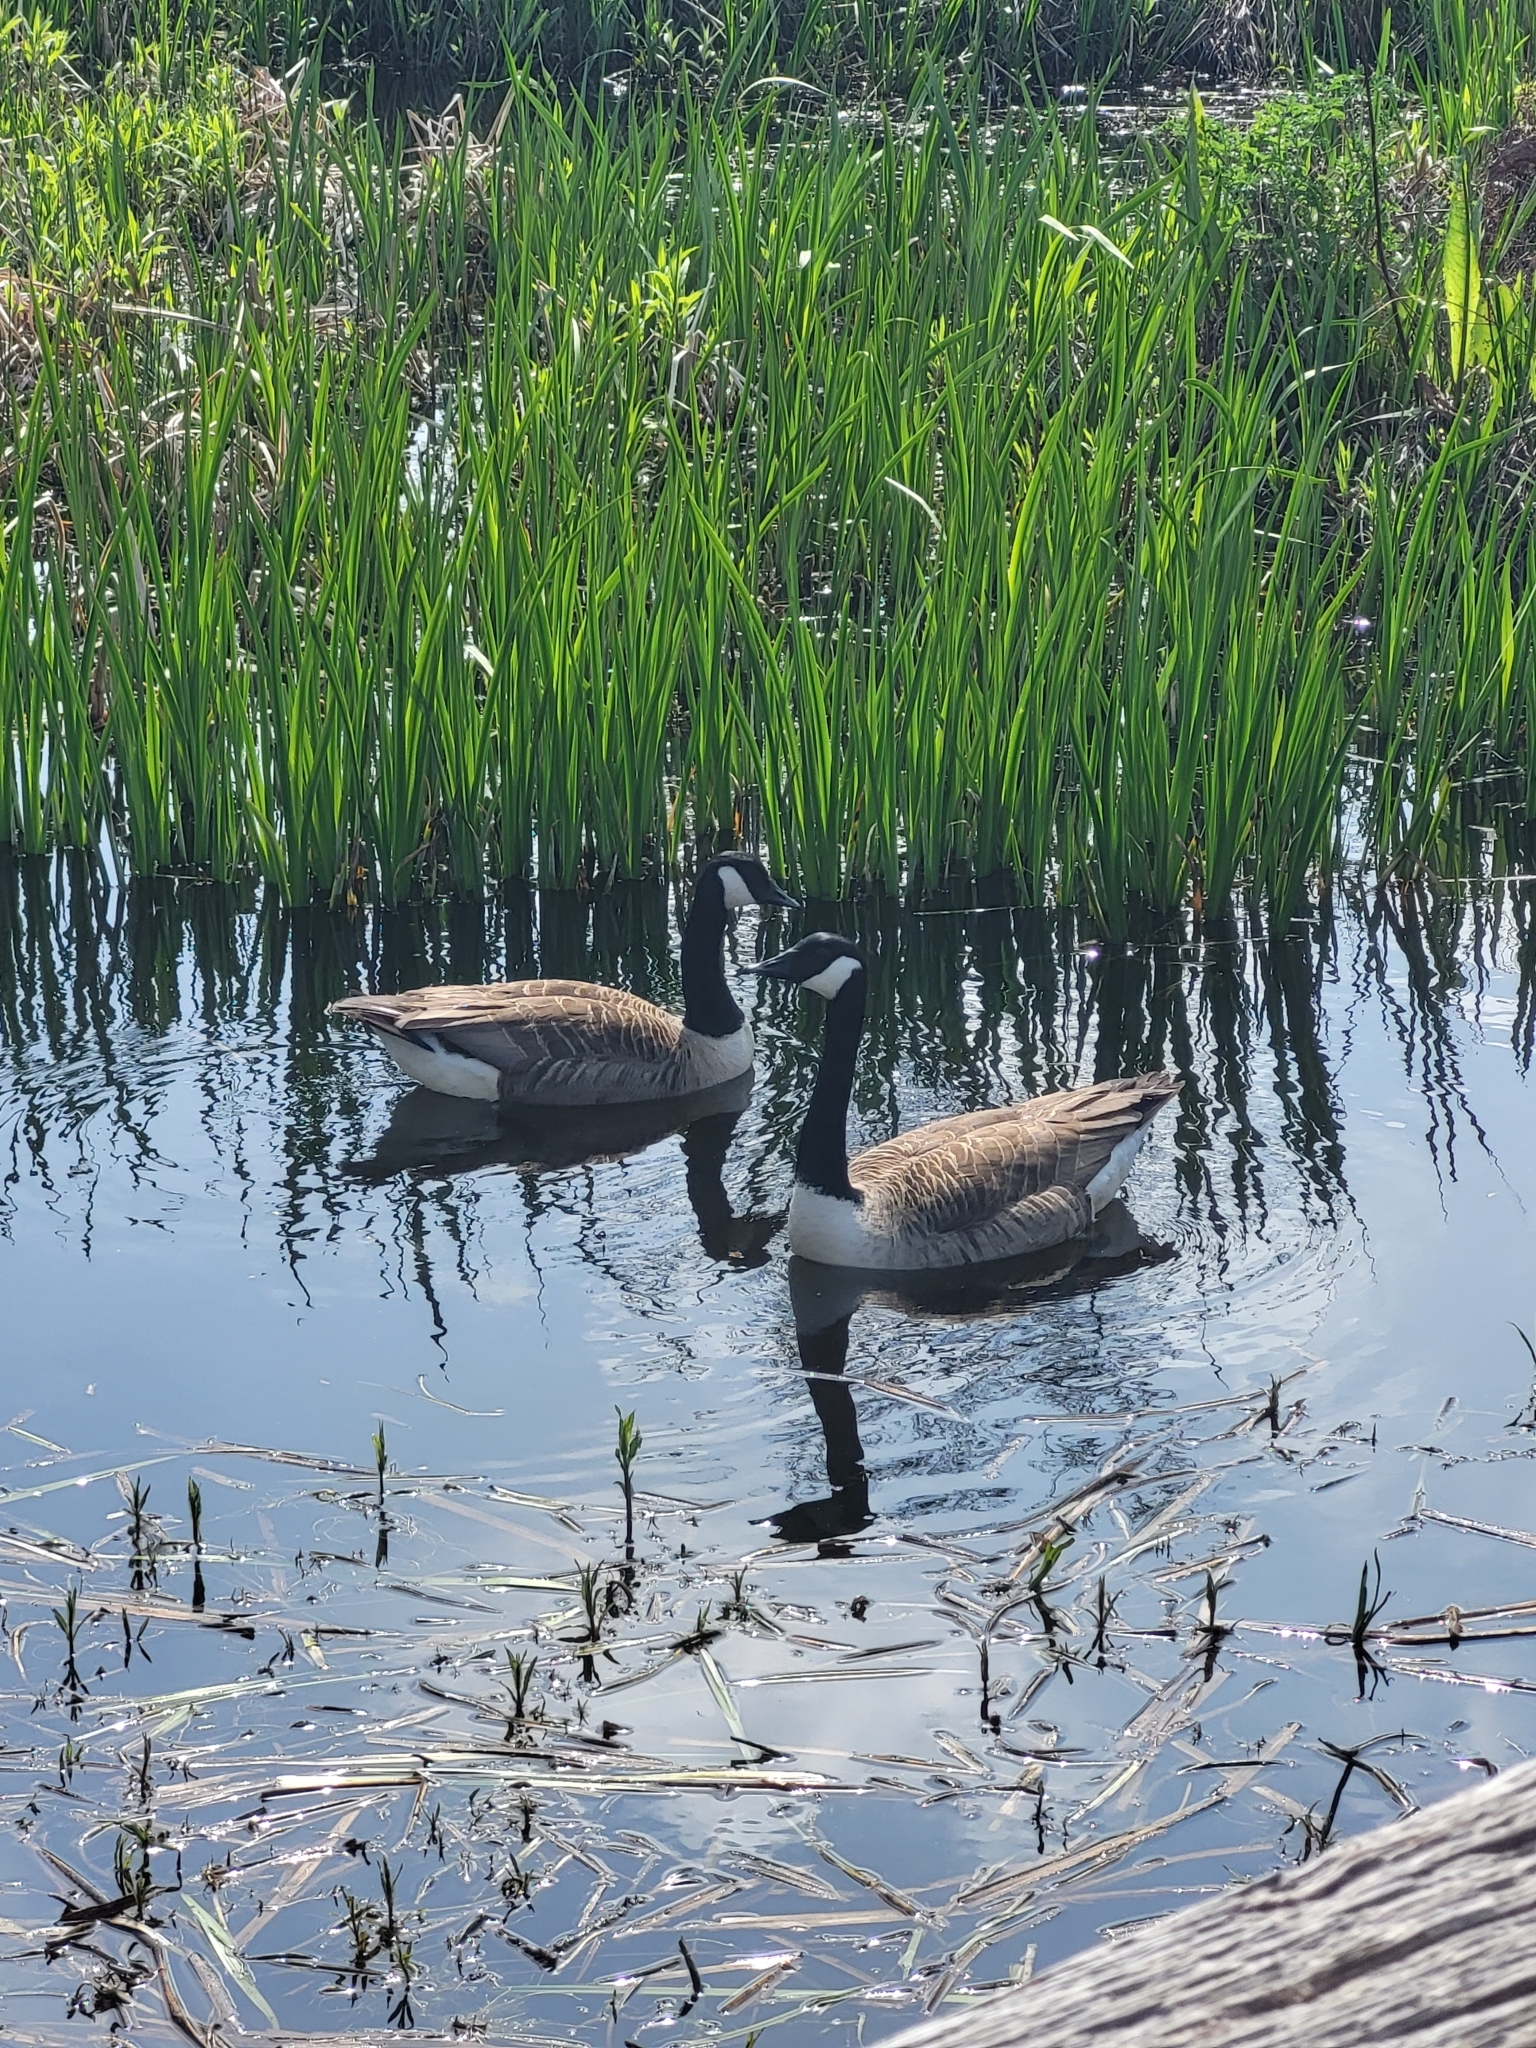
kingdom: Animalia
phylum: Chordata
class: Aves
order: Anseriformes
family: Anatidae
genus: Branta
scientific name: Branta canadensis
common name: Canada goose
